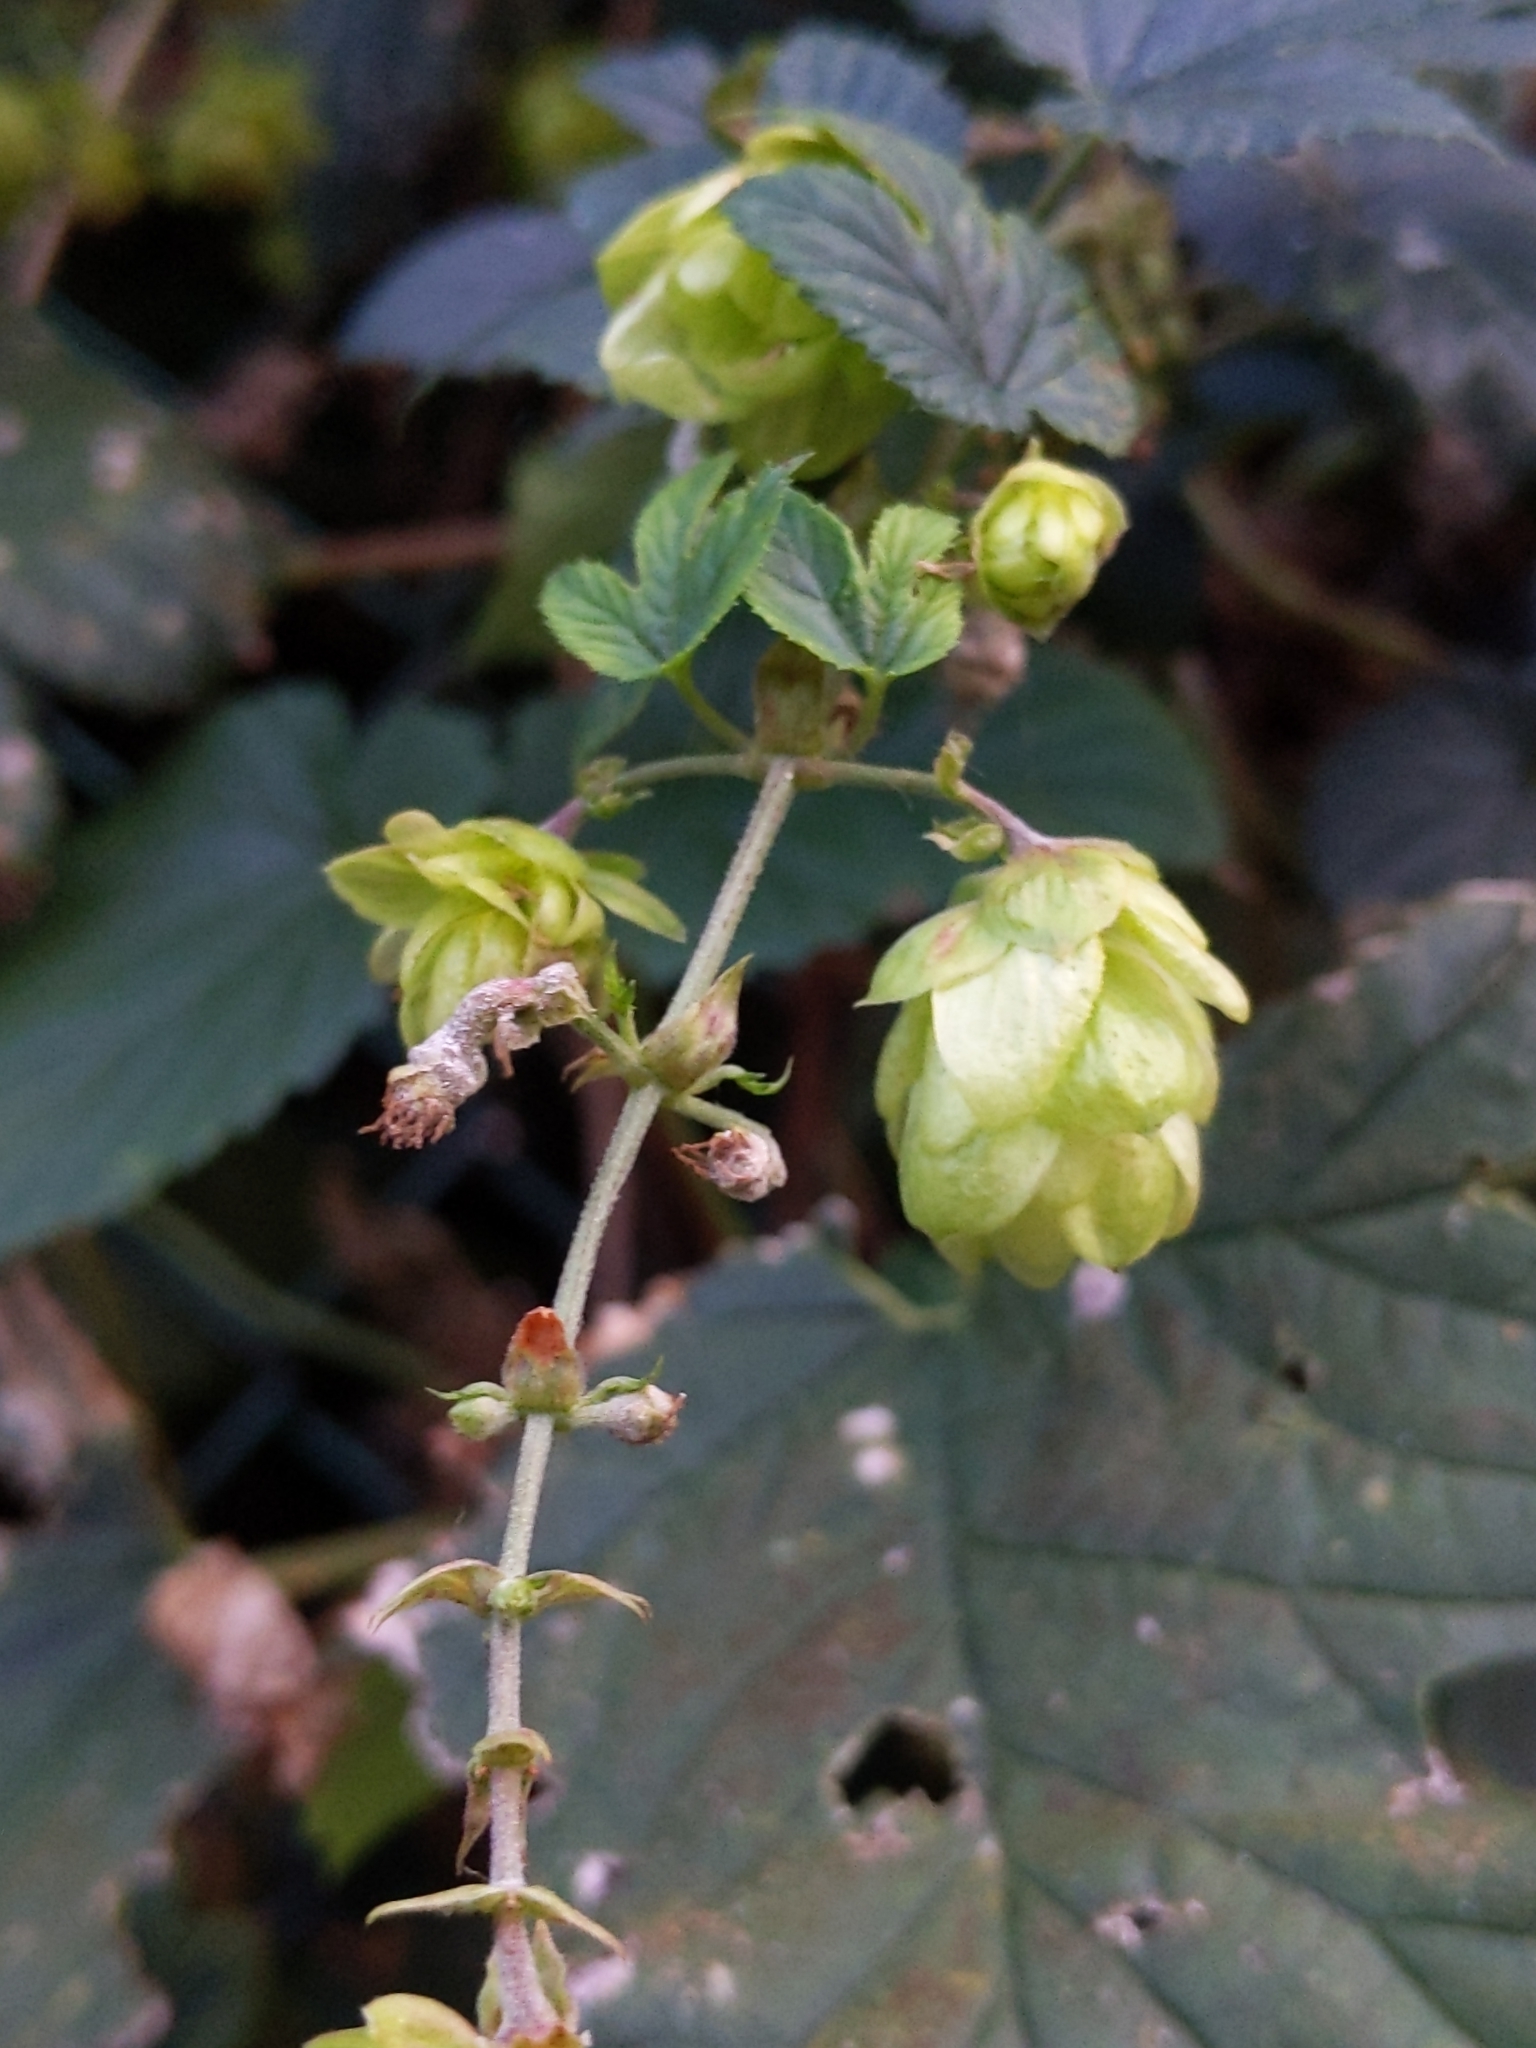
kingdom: Plantae
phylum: Tracheophyta
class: Magnoliopsida
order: Rosales
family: Cannabaceae
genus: Humulus
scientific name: Humulus lupulus
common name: Hop
